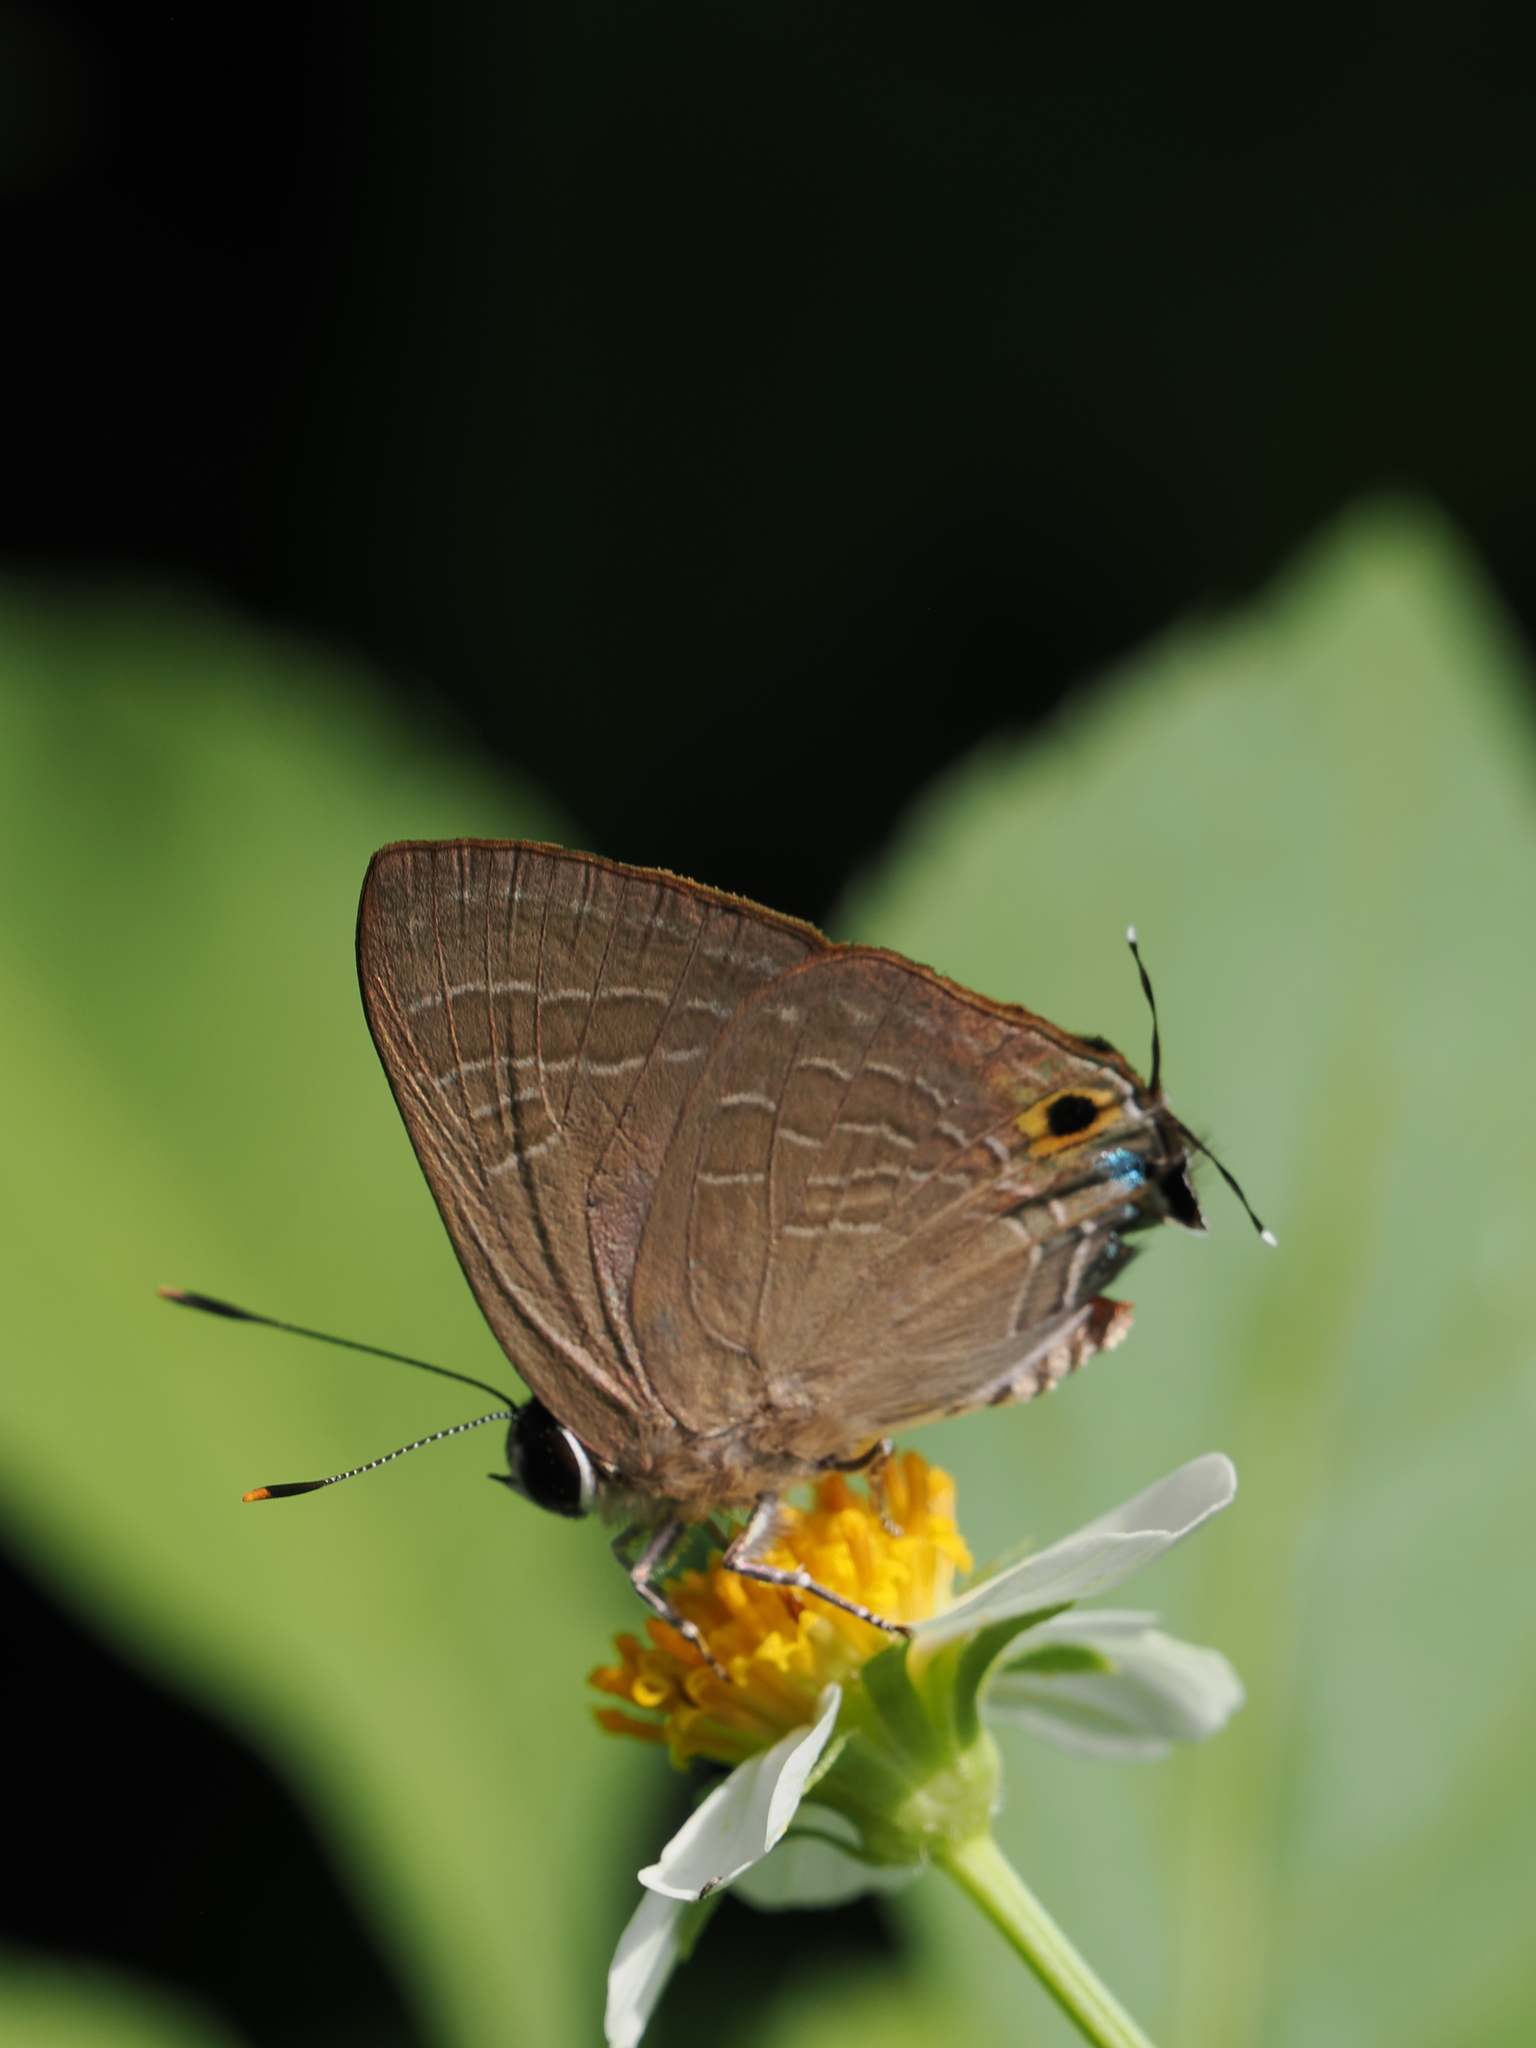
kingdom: Animalia
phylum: Arthropoda
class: Insecta
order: Lepidoptera
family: Lycaenidae
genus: Deudorix
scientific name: Deudorix epijarbas
